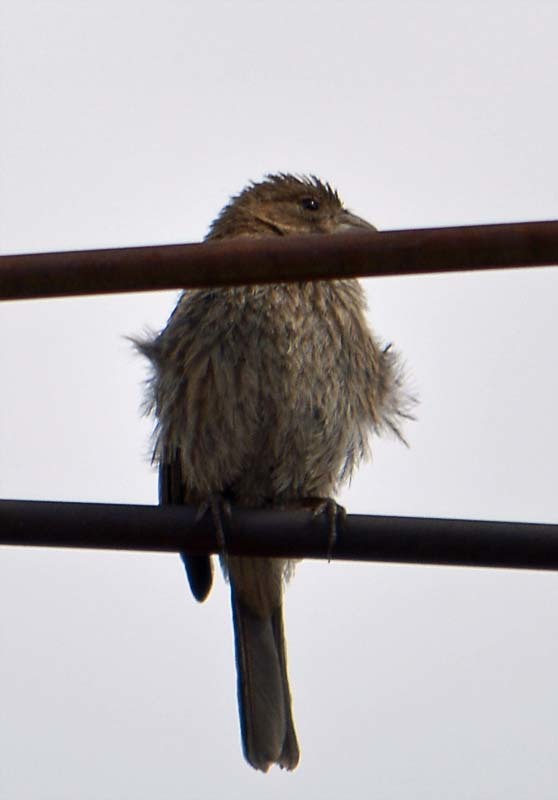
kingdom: Animalia
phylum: Chordata
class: Aves
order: Passeriformes
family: Fringillidae
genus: Haemorhous
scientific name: Haemorhous mexicanus
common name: House finch
